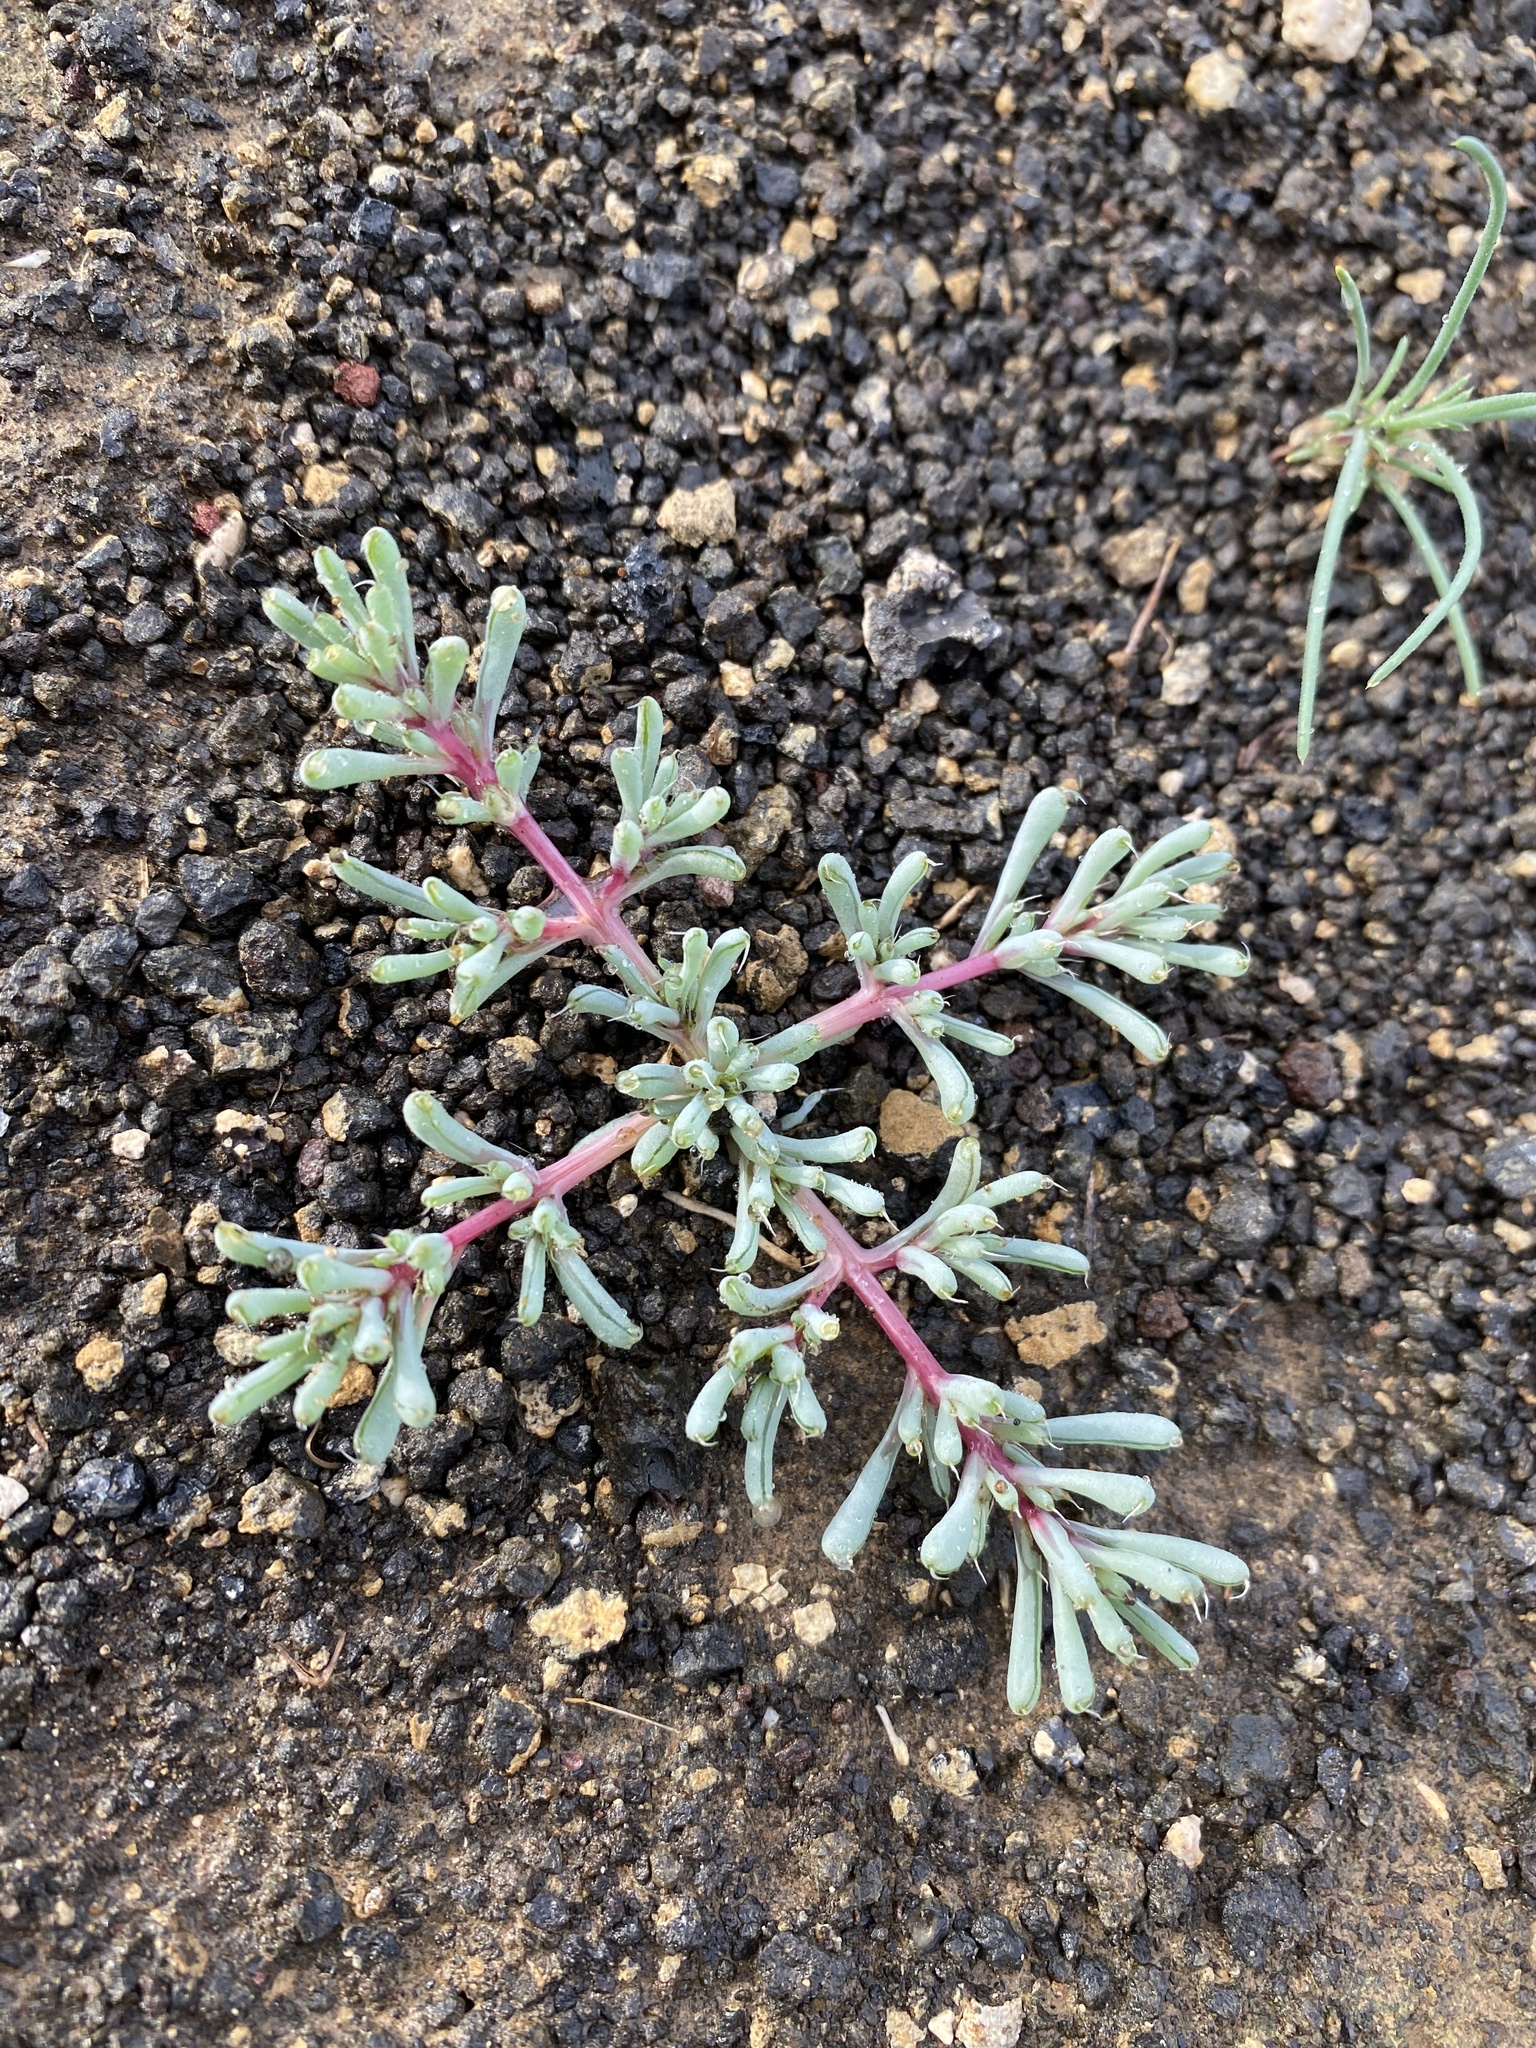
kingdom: Plantae
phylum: Tracheophyta
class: Magnoliopsida
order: Caryophyllales
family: Amaranthaceae
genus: Halogeton
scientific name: Halogeton glomeratus
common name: Saltlover
